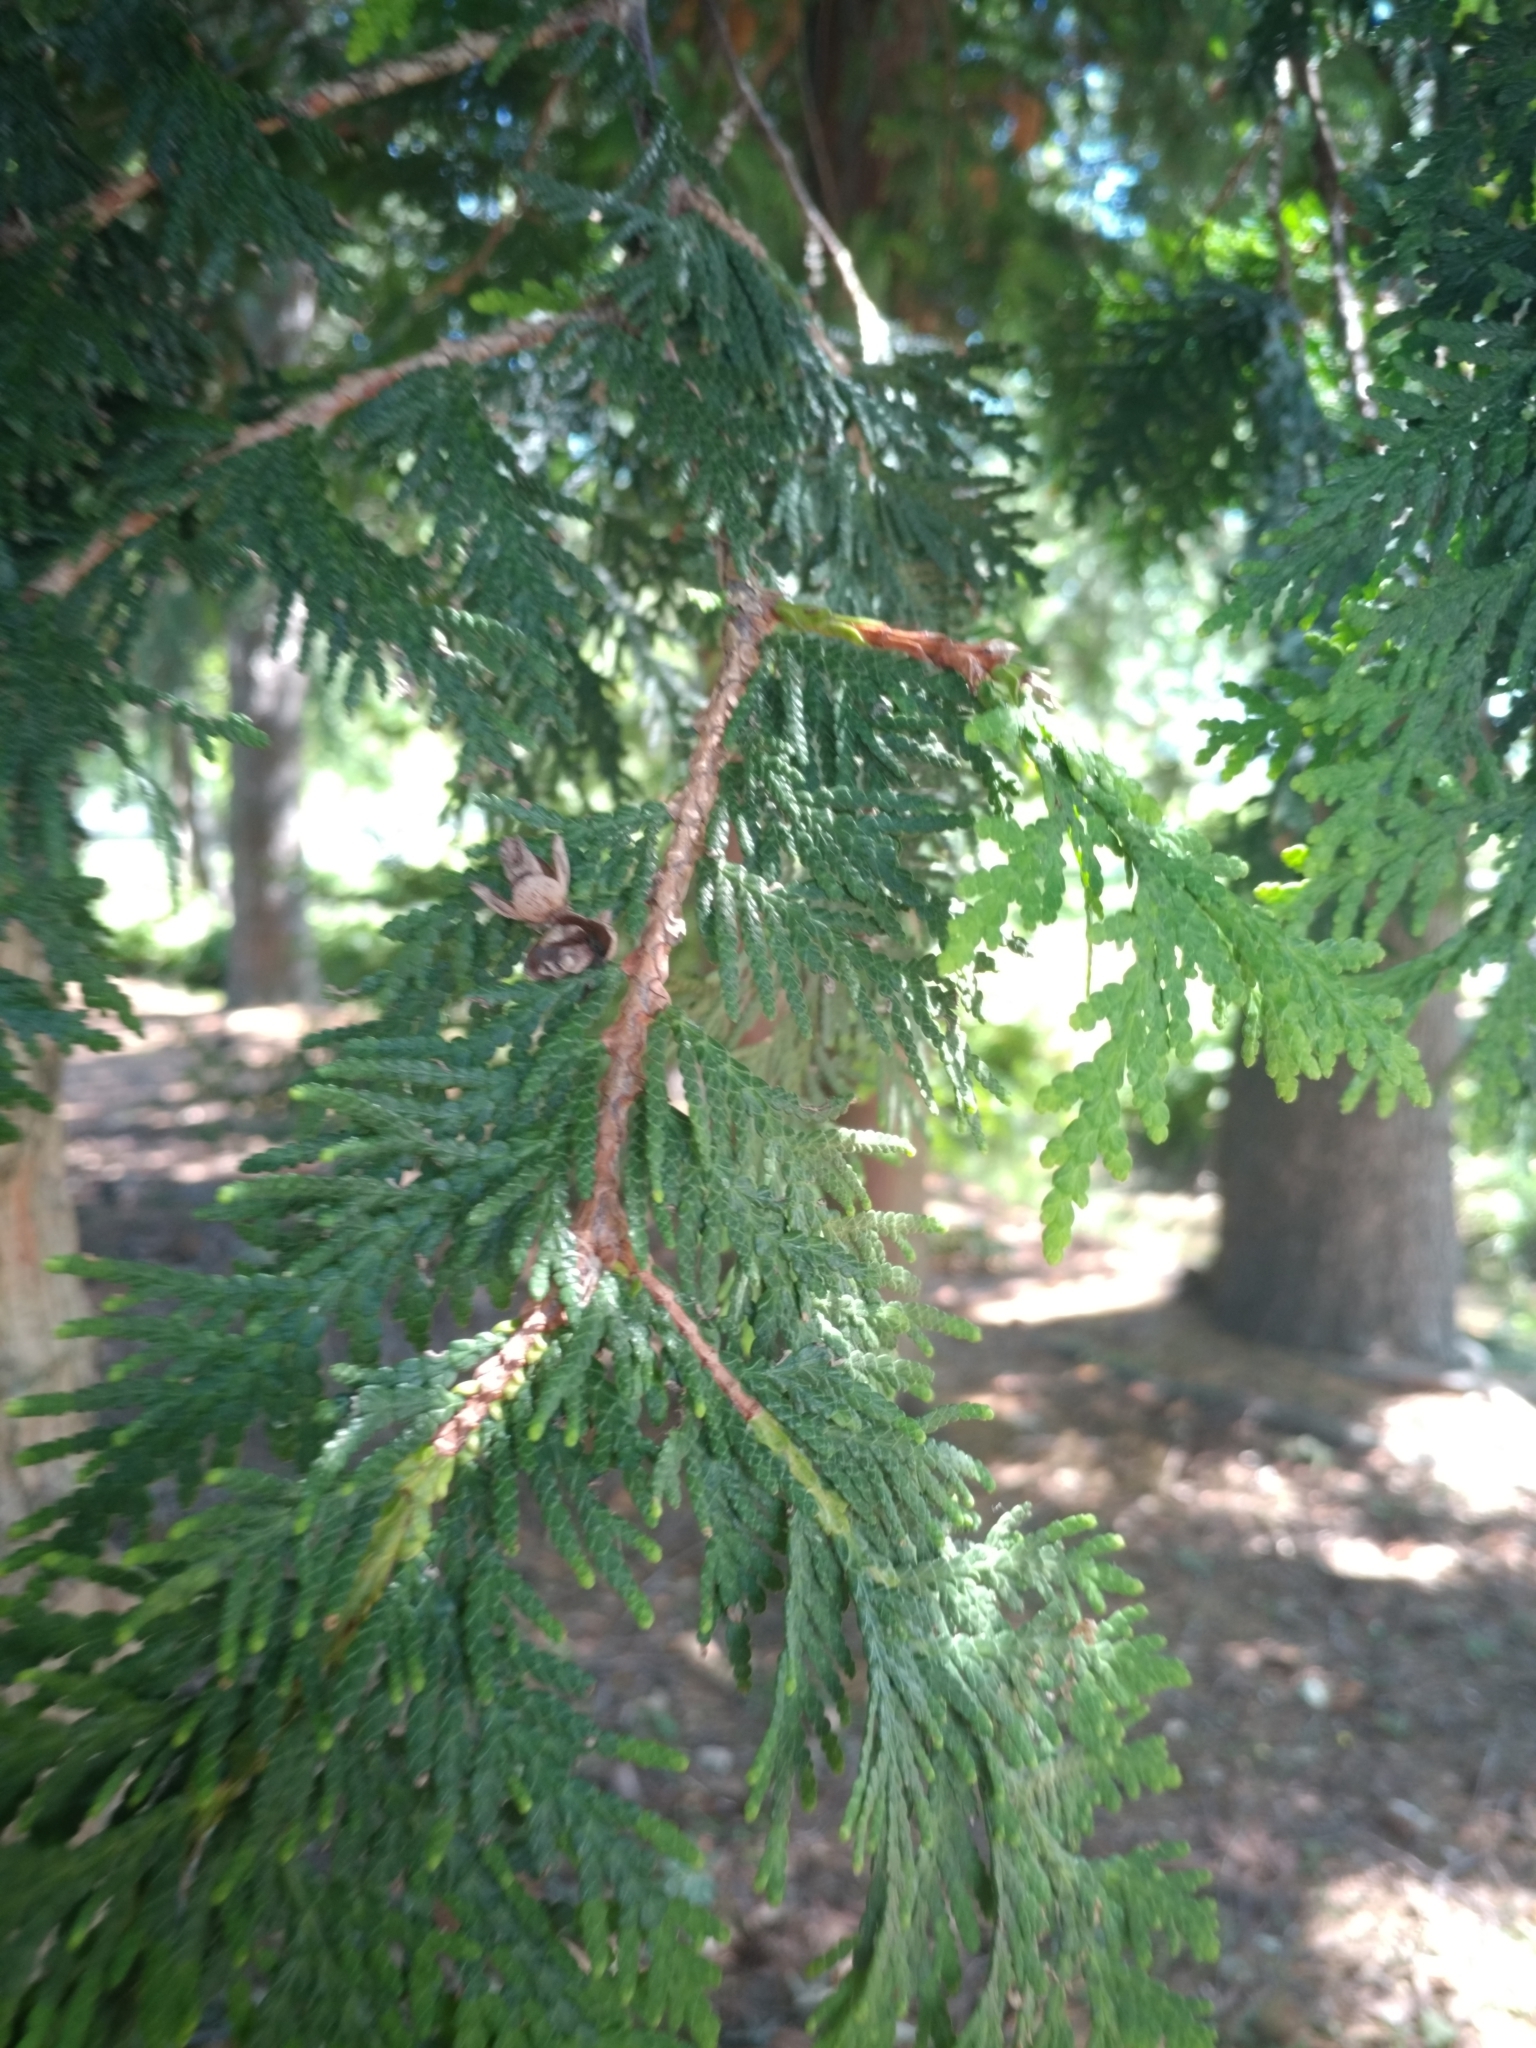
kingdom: Plantae
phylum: Tracheophyta
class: Pinopsida
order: Pinales
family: Cupressaceae
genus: Thuja
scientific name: Thuja plicata
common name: Western red-cedar
